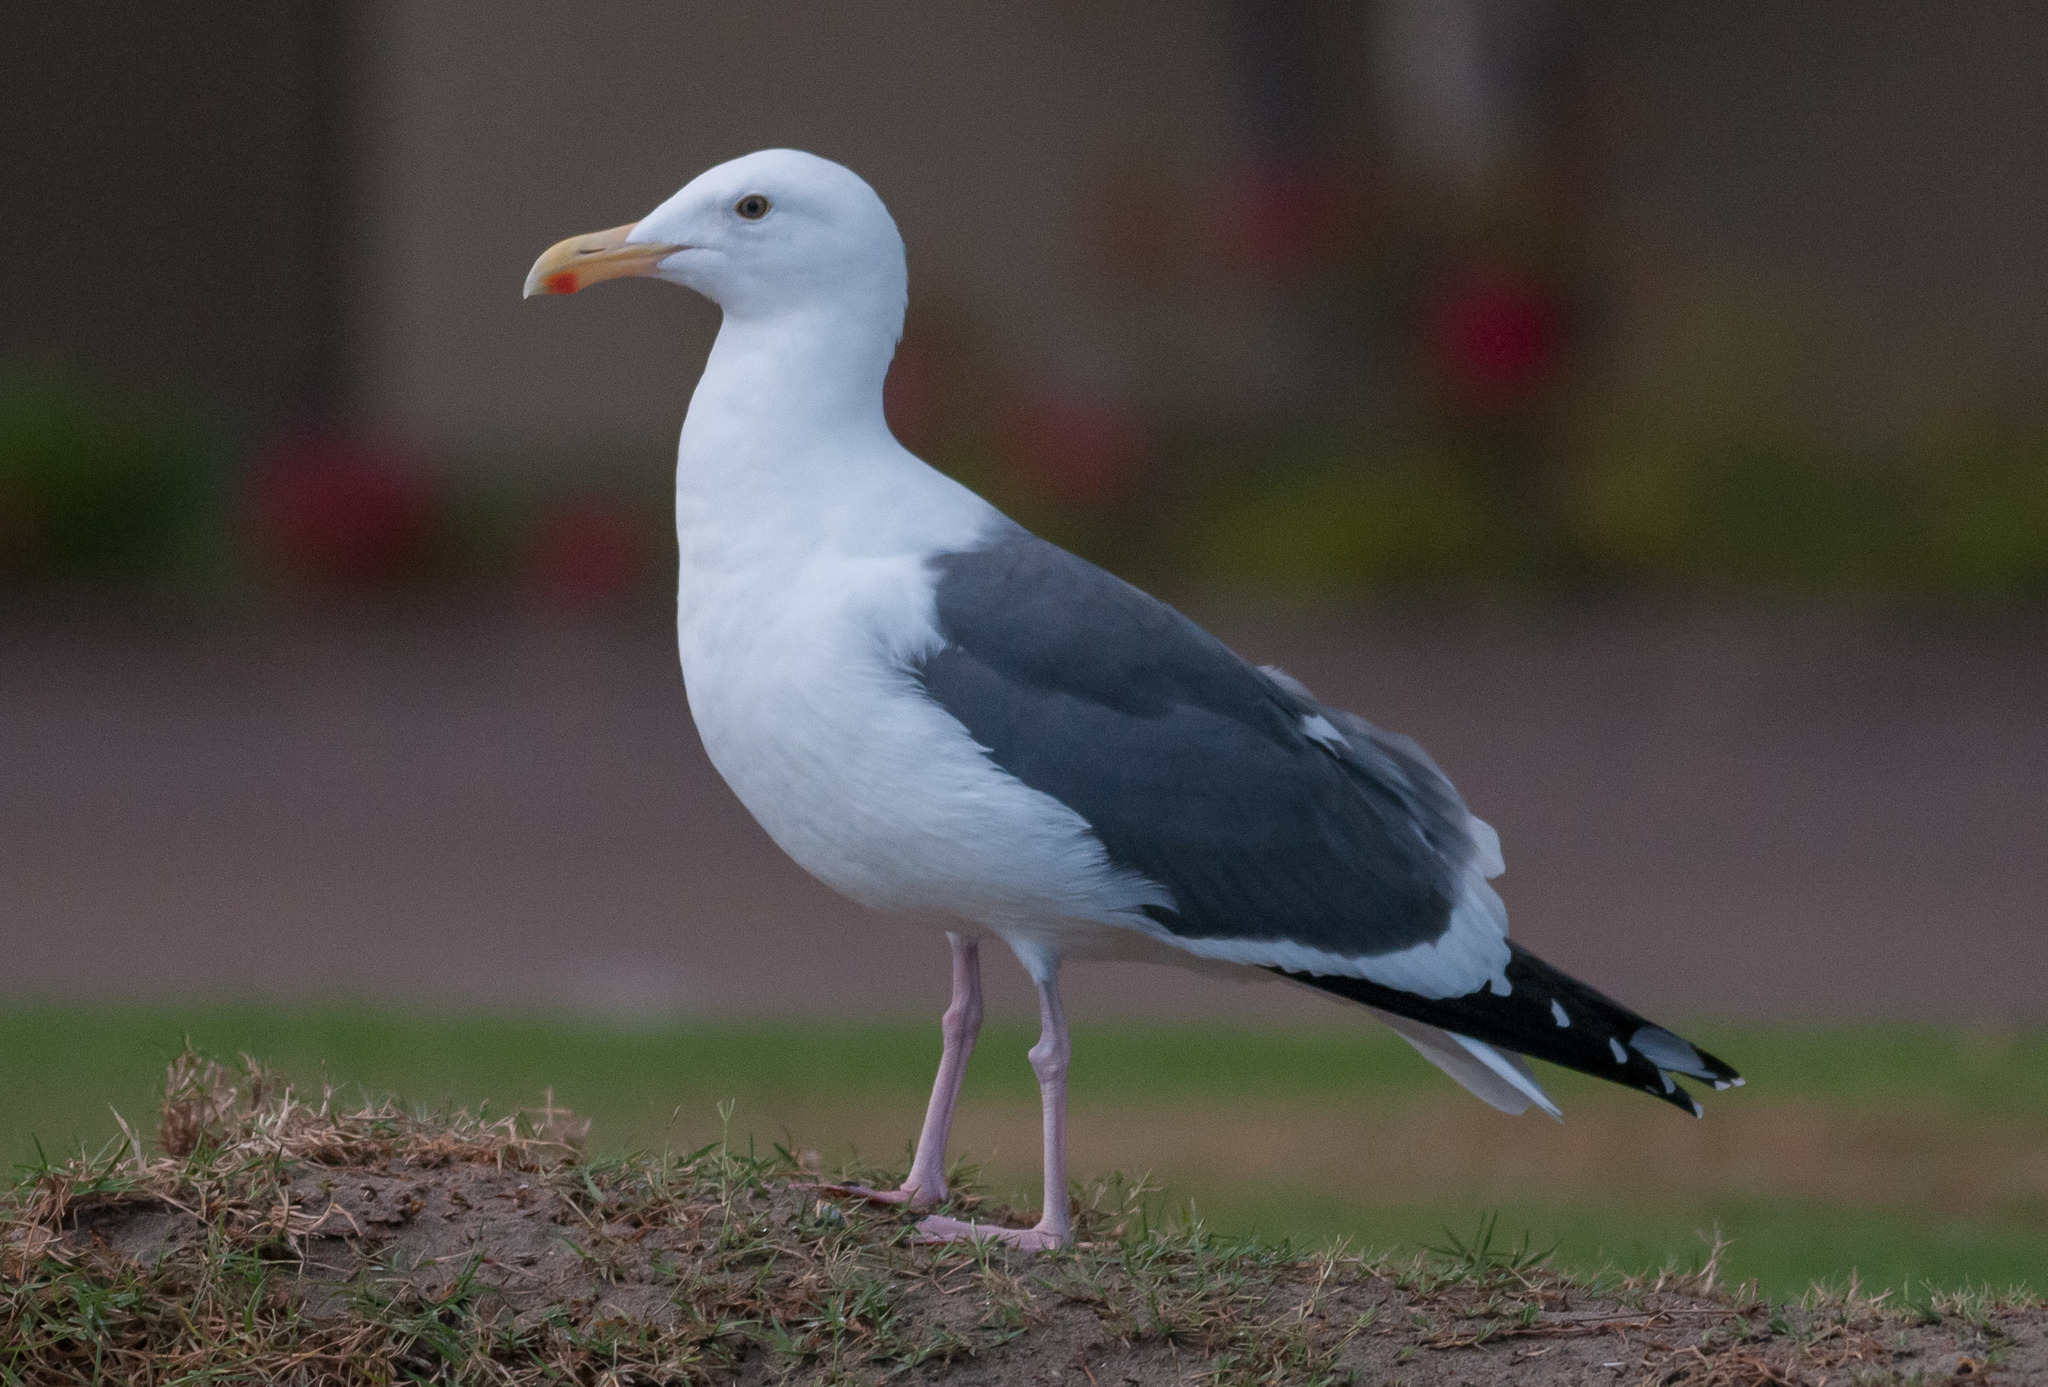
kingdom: Animalia
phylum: Chordata
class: Aves
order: Charadriiformes
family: Laridae
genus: Larus
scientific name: Larus occidentalis
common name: Western gull
